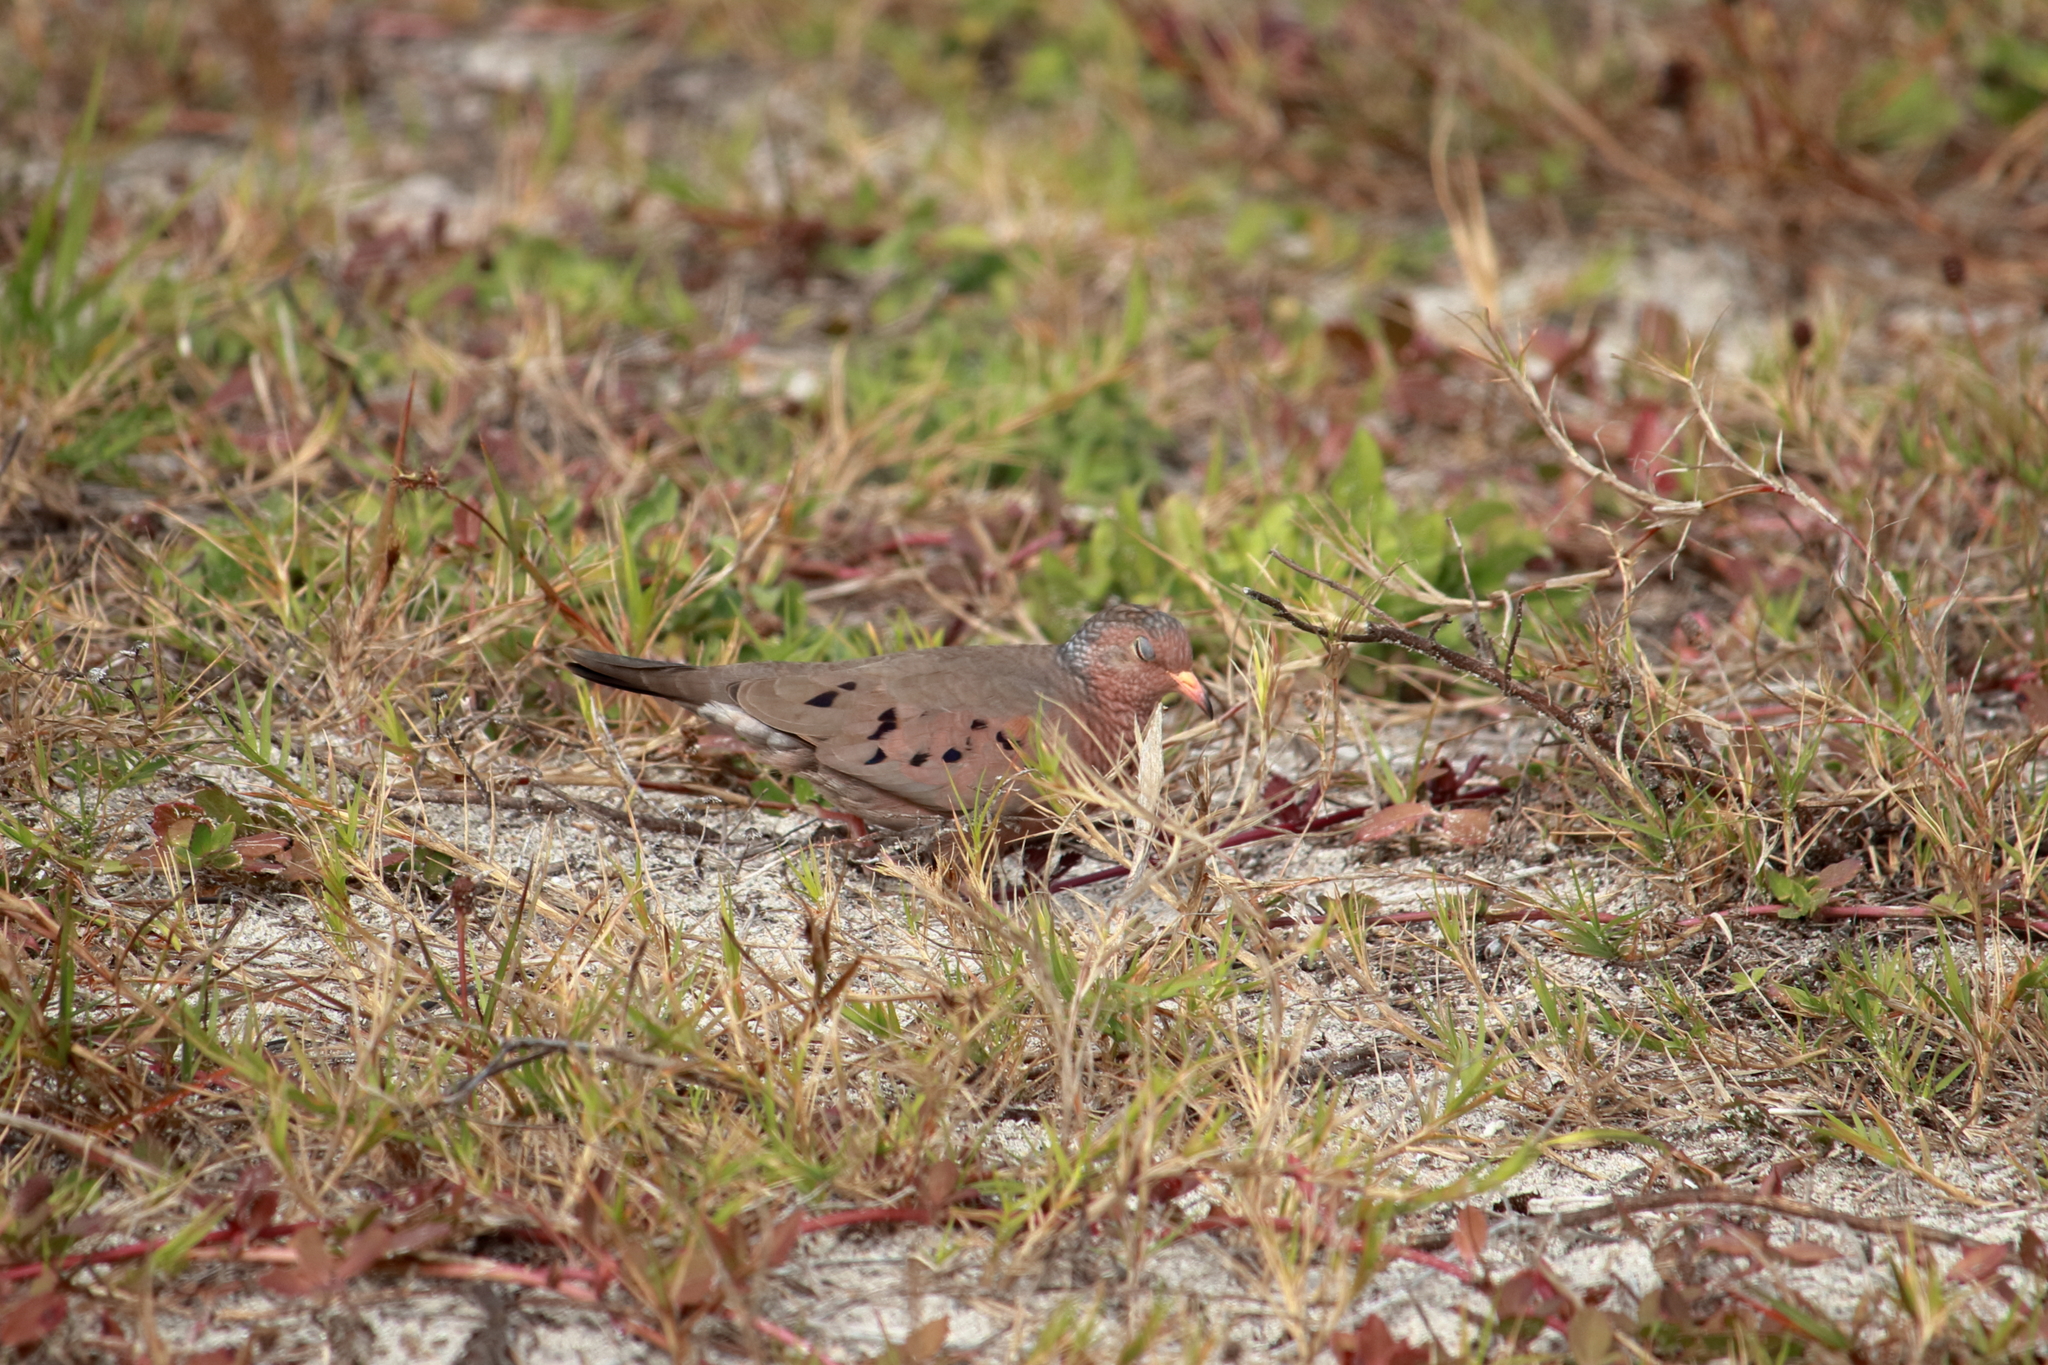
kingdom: Animalia
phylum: Chordata
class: Aves
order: Columbiformes
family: Columbidae
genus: Columbina
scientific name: Columbina passerina
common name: Common ground-dove
